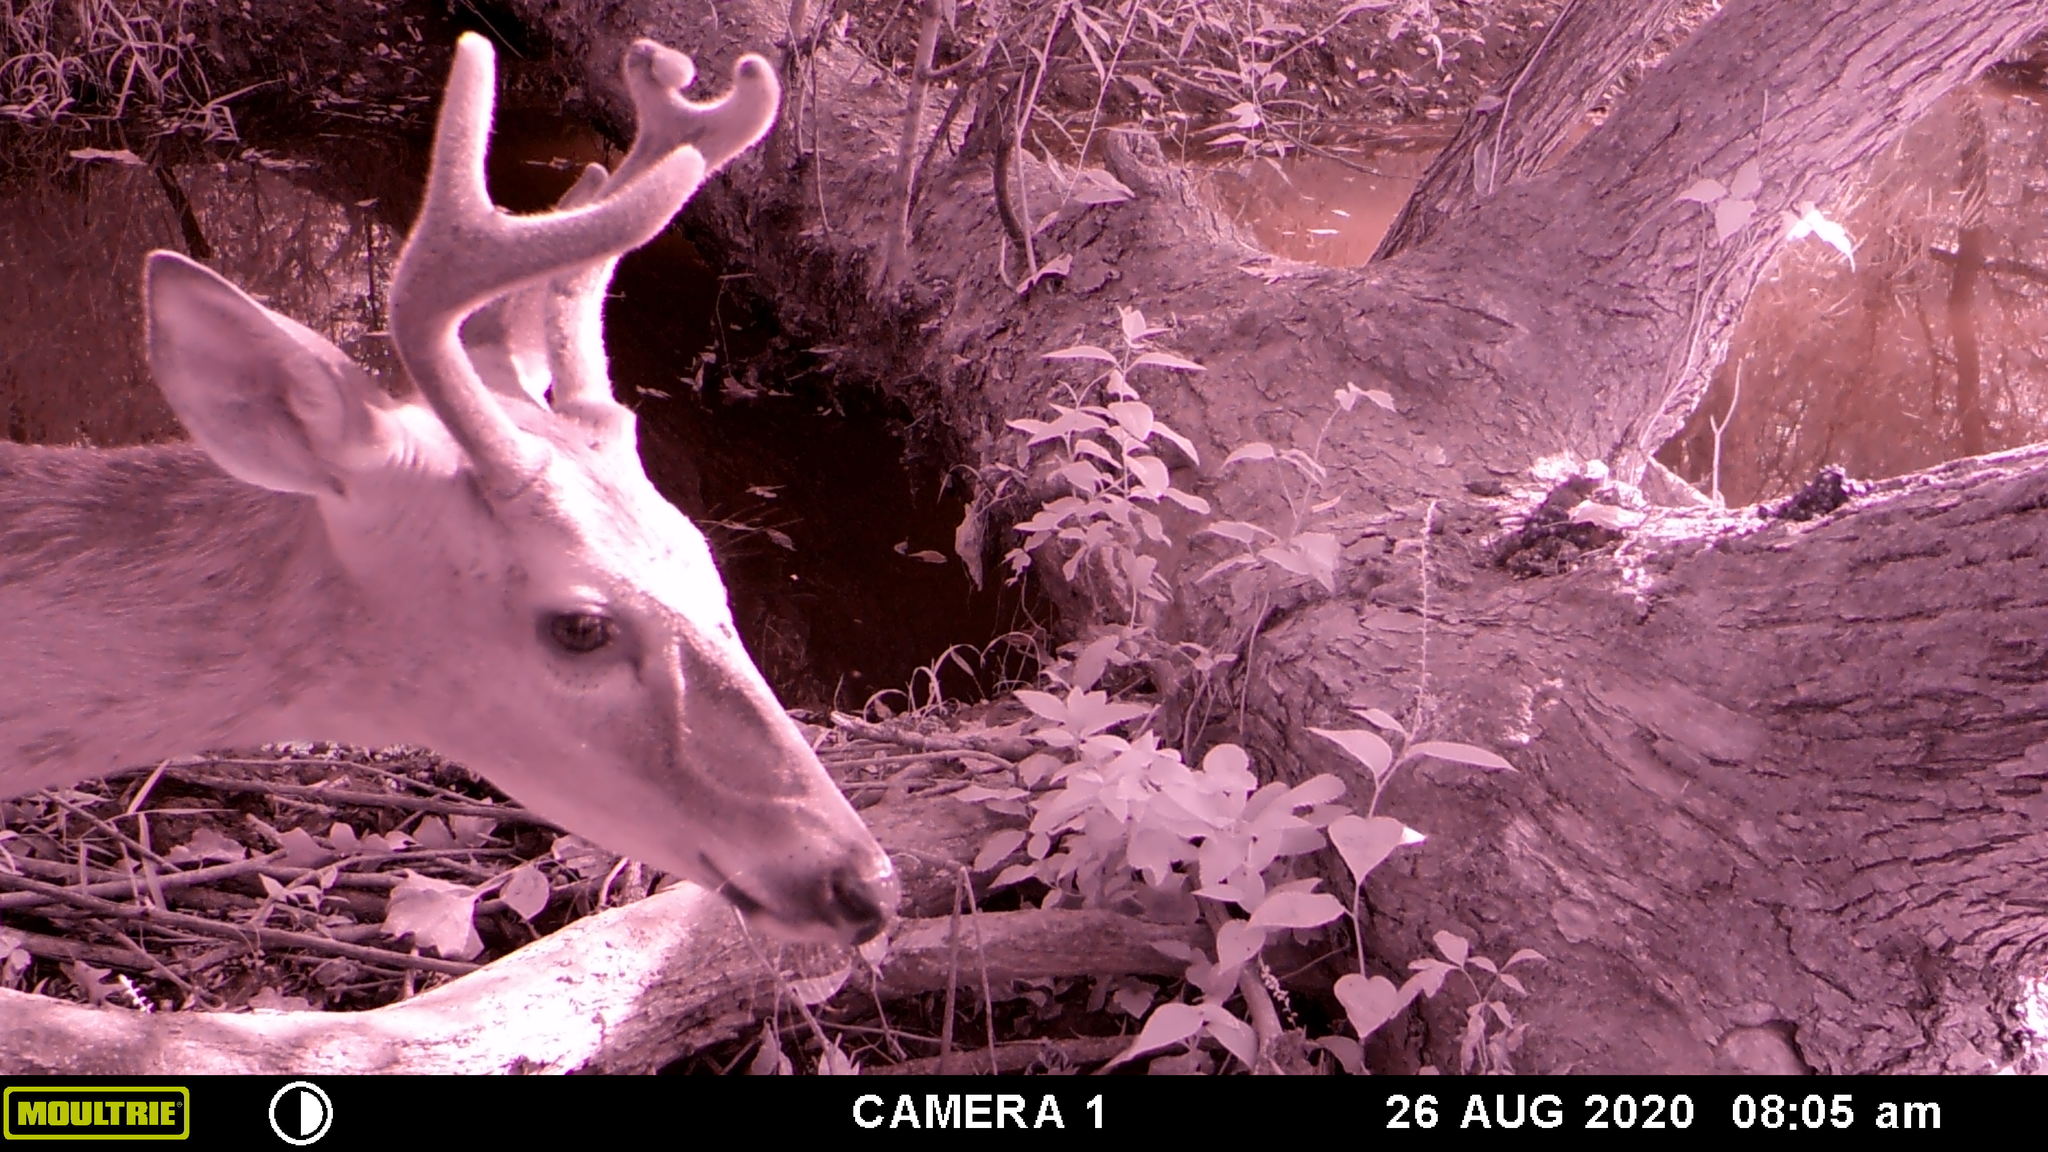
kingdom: Animalia
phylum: Chordata
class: Mammalia
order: Artiodactyla
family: Cervidae
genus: Odocoileus
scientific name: Odocoileus virginianus
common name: White-tailed deer
